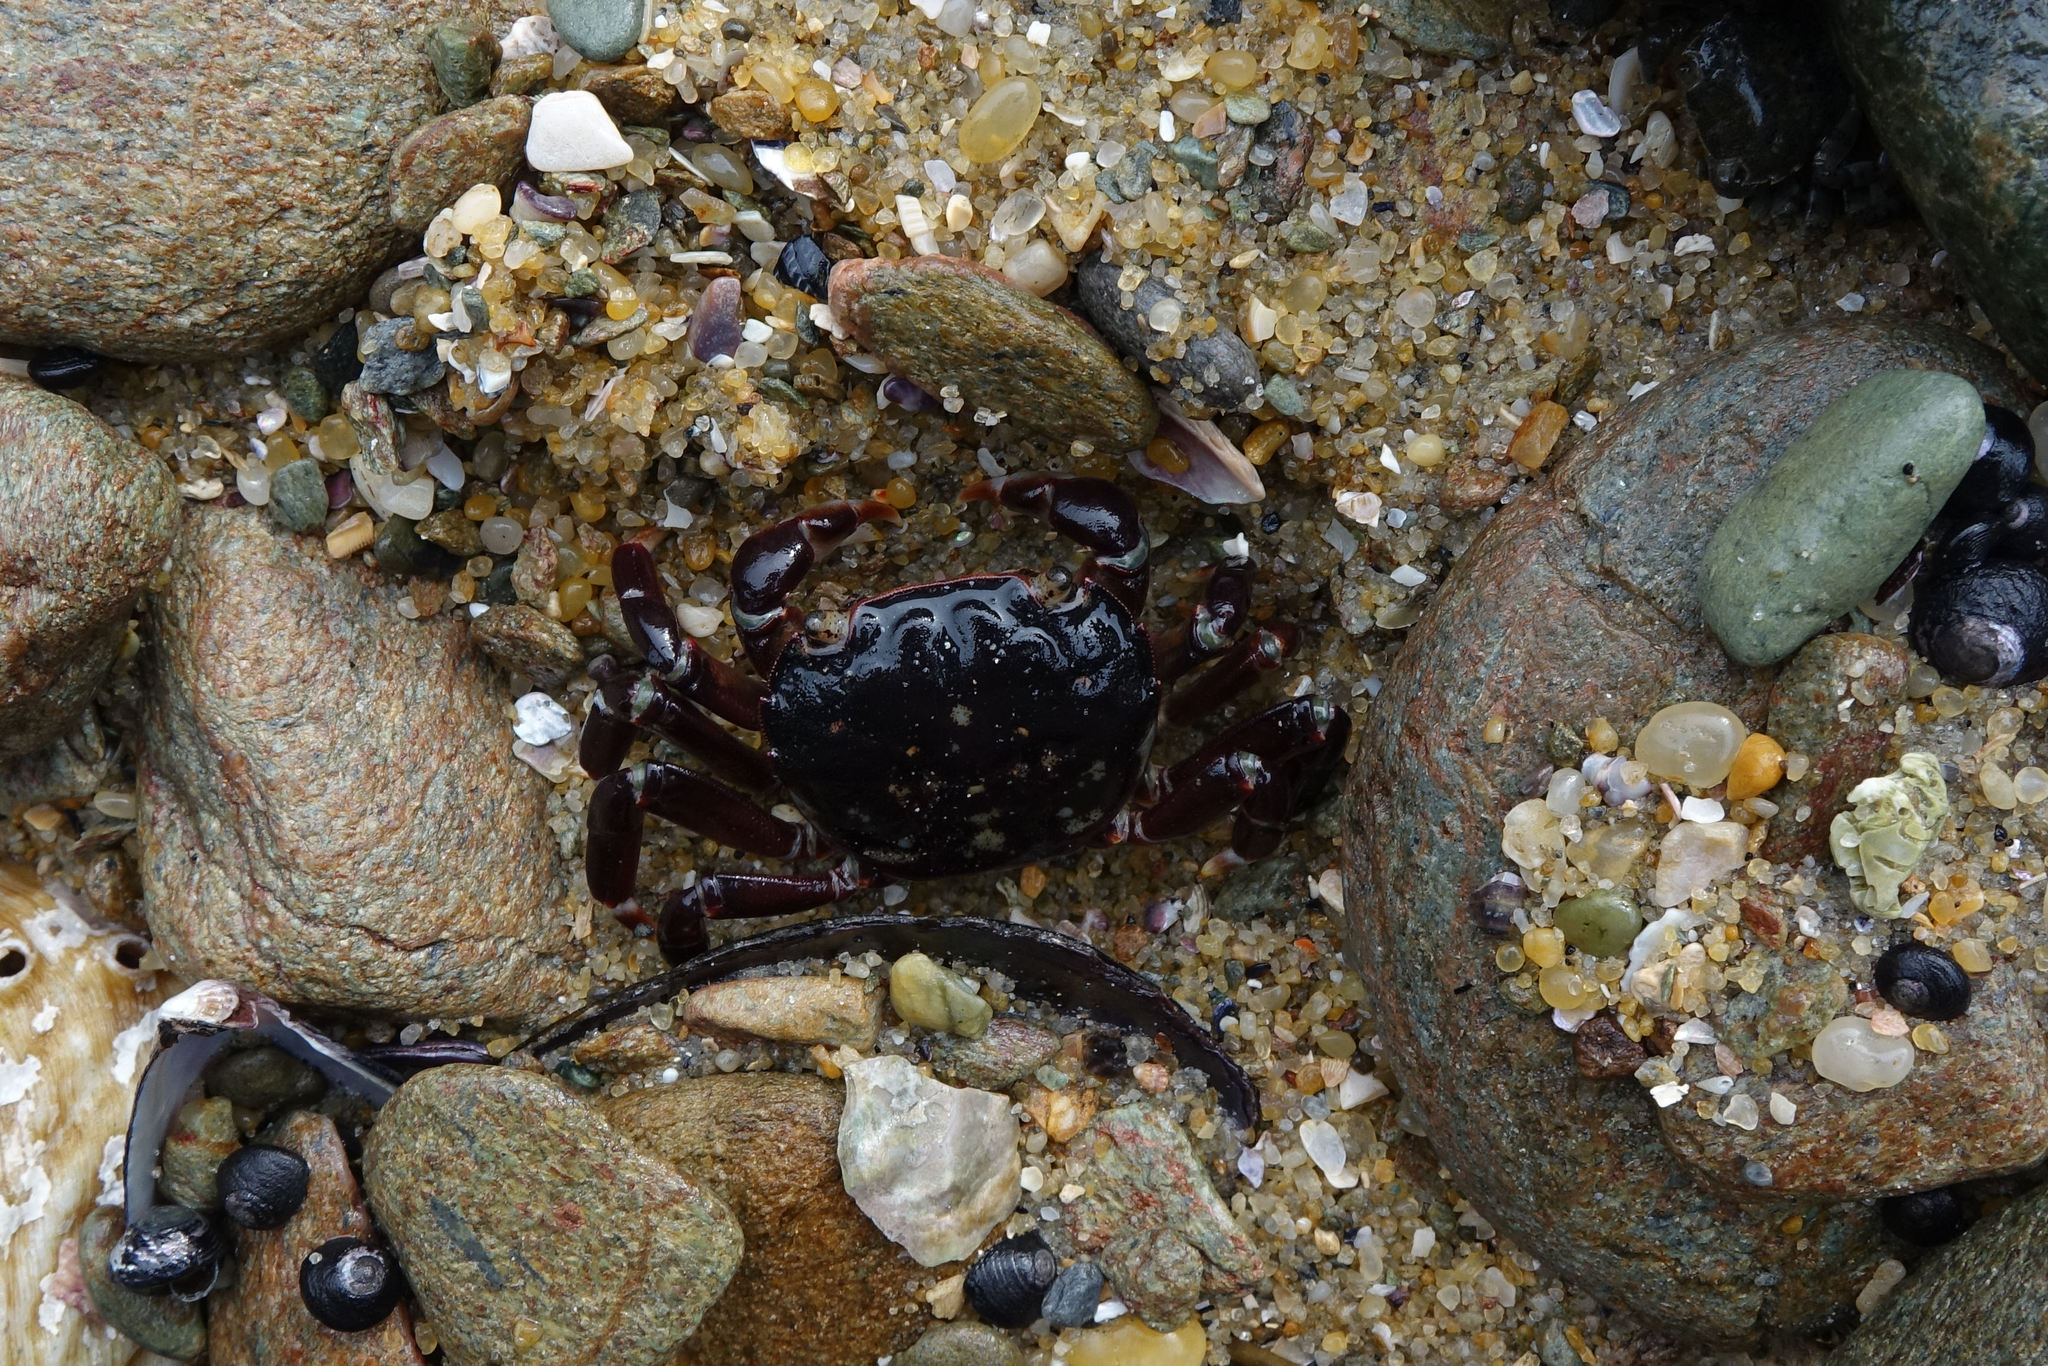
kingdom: Animalia
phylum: Arthropoda
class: Malacostraca
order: Decapoda
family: Varunidae
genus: Hemigrapsus
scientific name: Hemigrapsus sexdentatus
